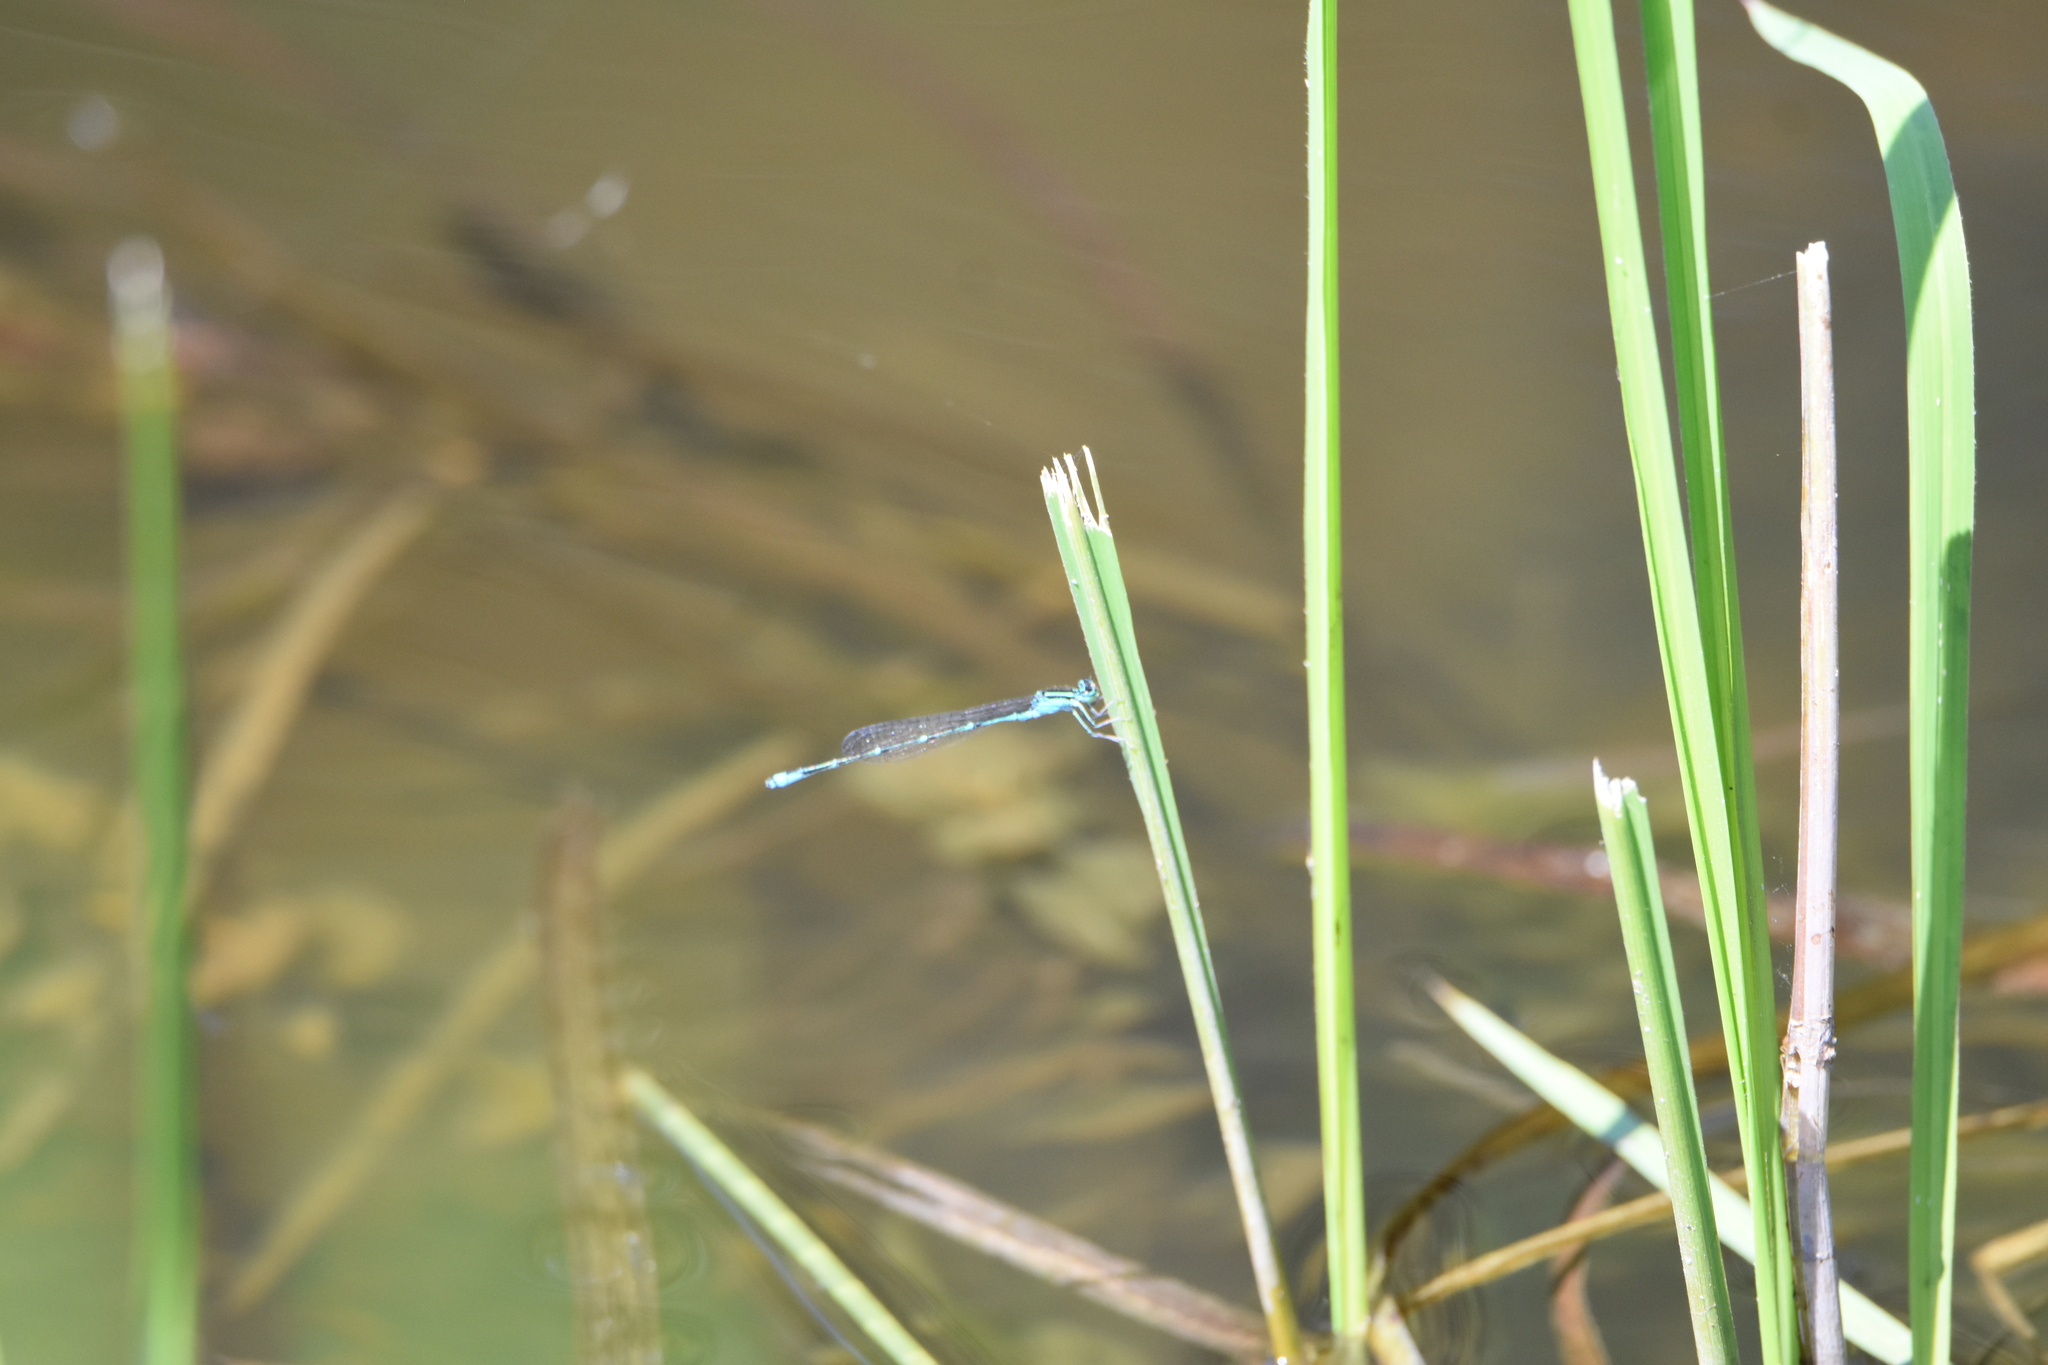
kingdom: Animalia
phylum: Arthropoda
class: Insecta
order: Odonata
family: Coenagrionidae
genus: Enallagma
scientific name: Enallagma exsulans
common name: Stream bluet
